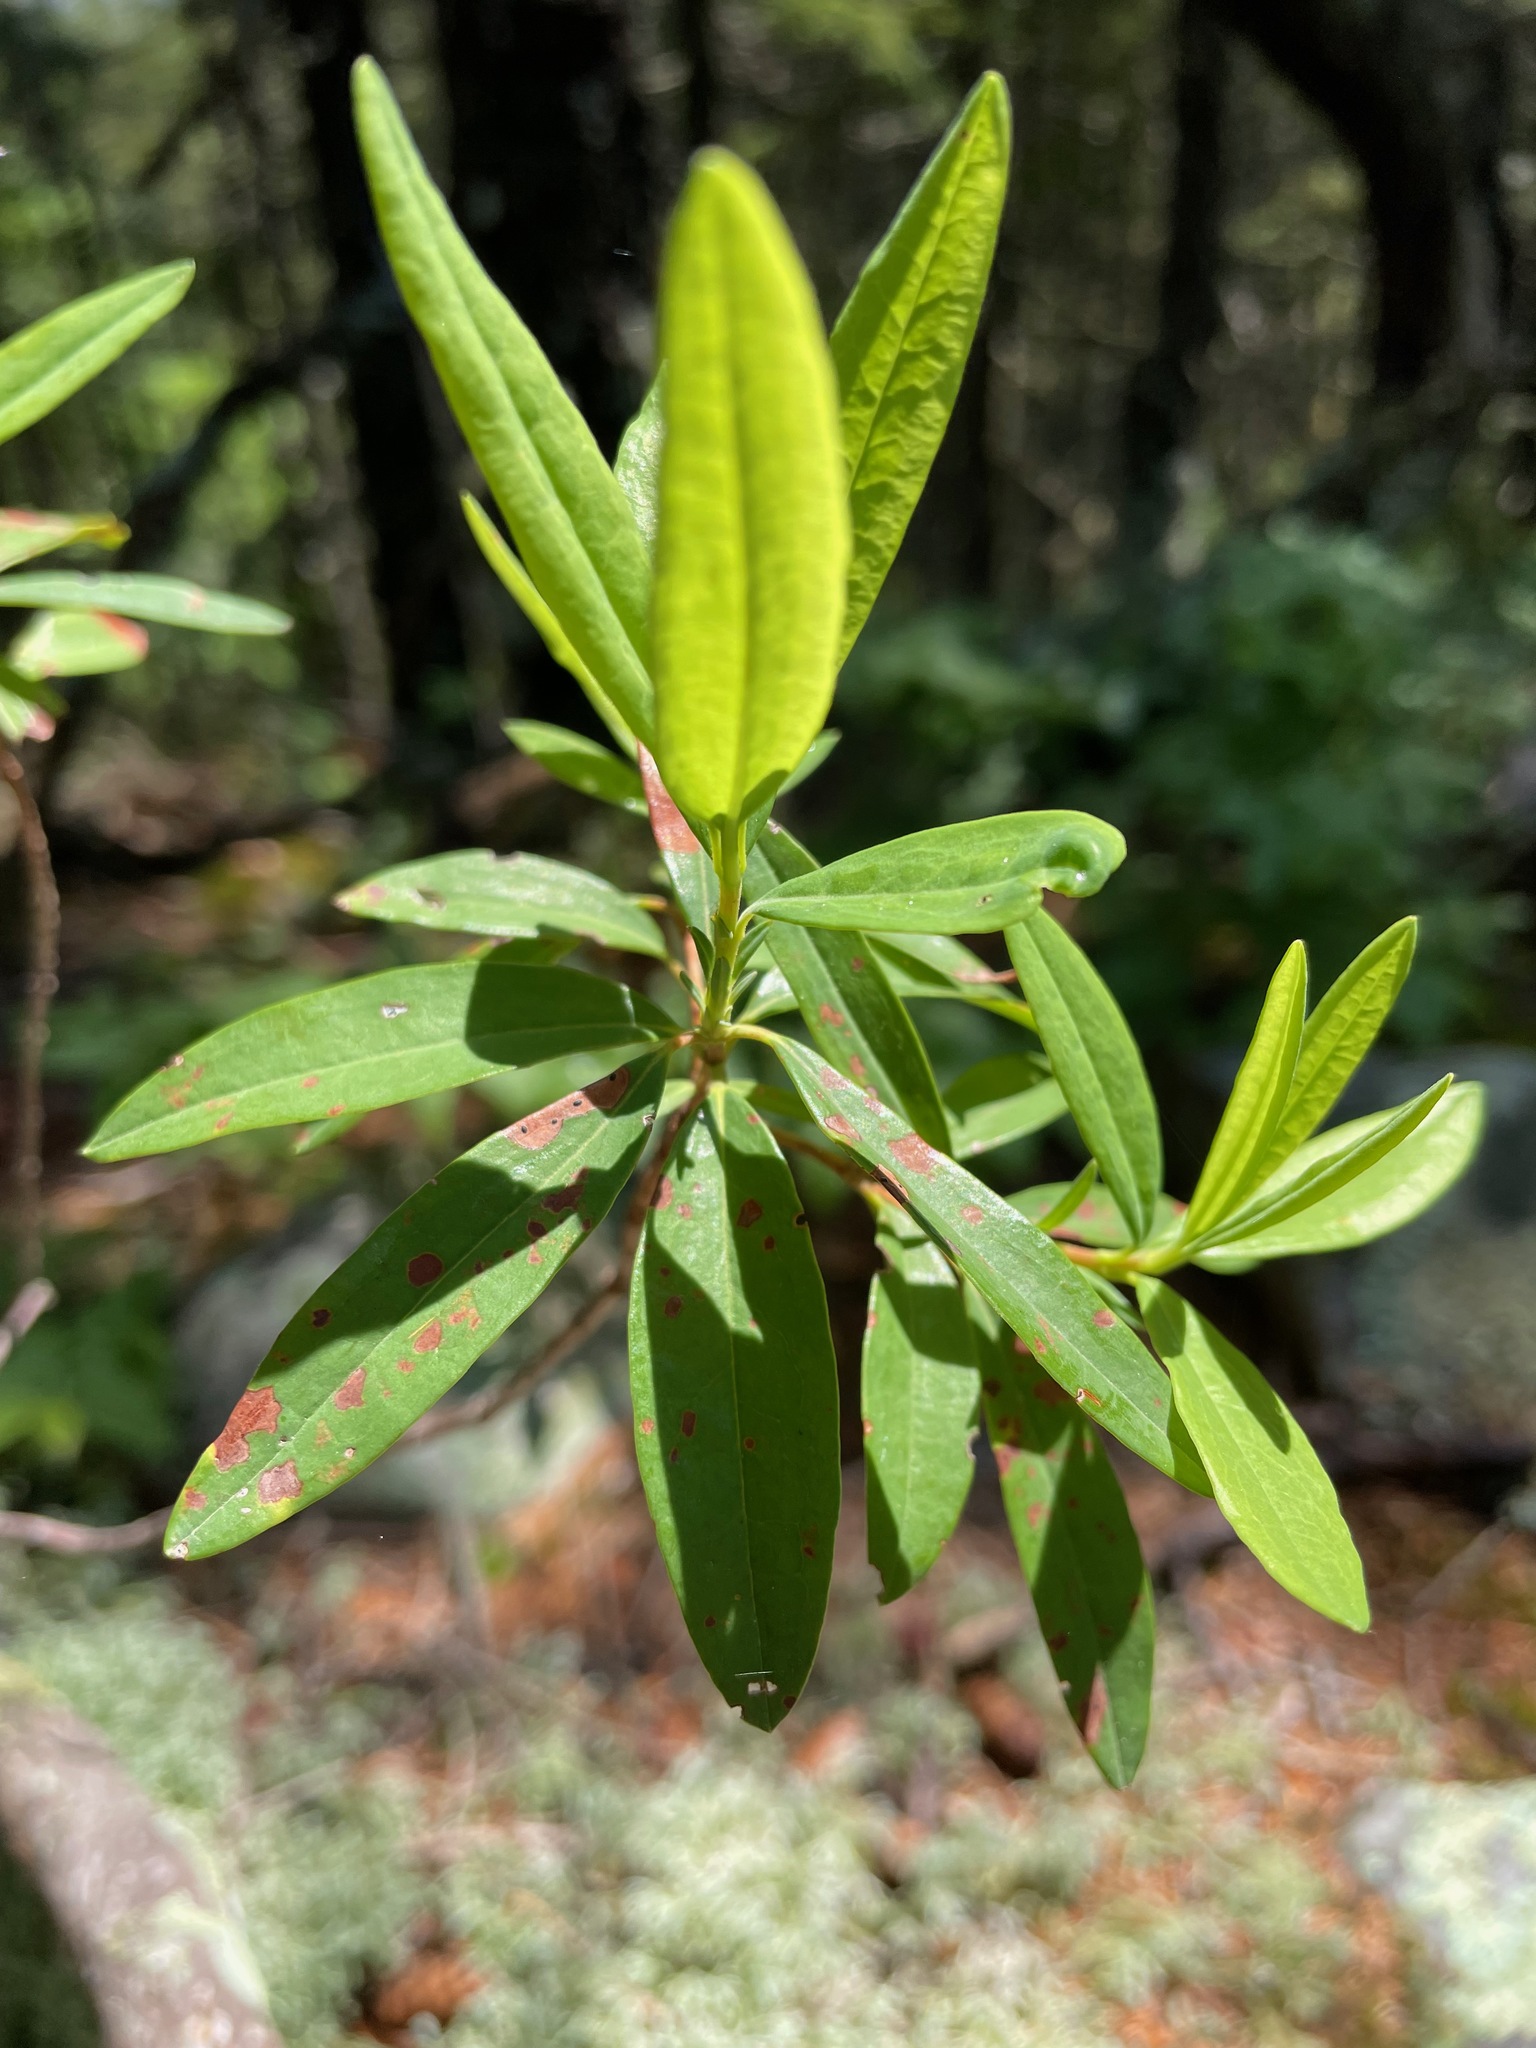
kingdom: Plantae
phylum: Tracheophyta
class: Magnoliopsida
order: Ericales
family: Ericaceae
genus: Kalmia
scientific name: Kalmia angustifolia
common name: Sheep-laurel
